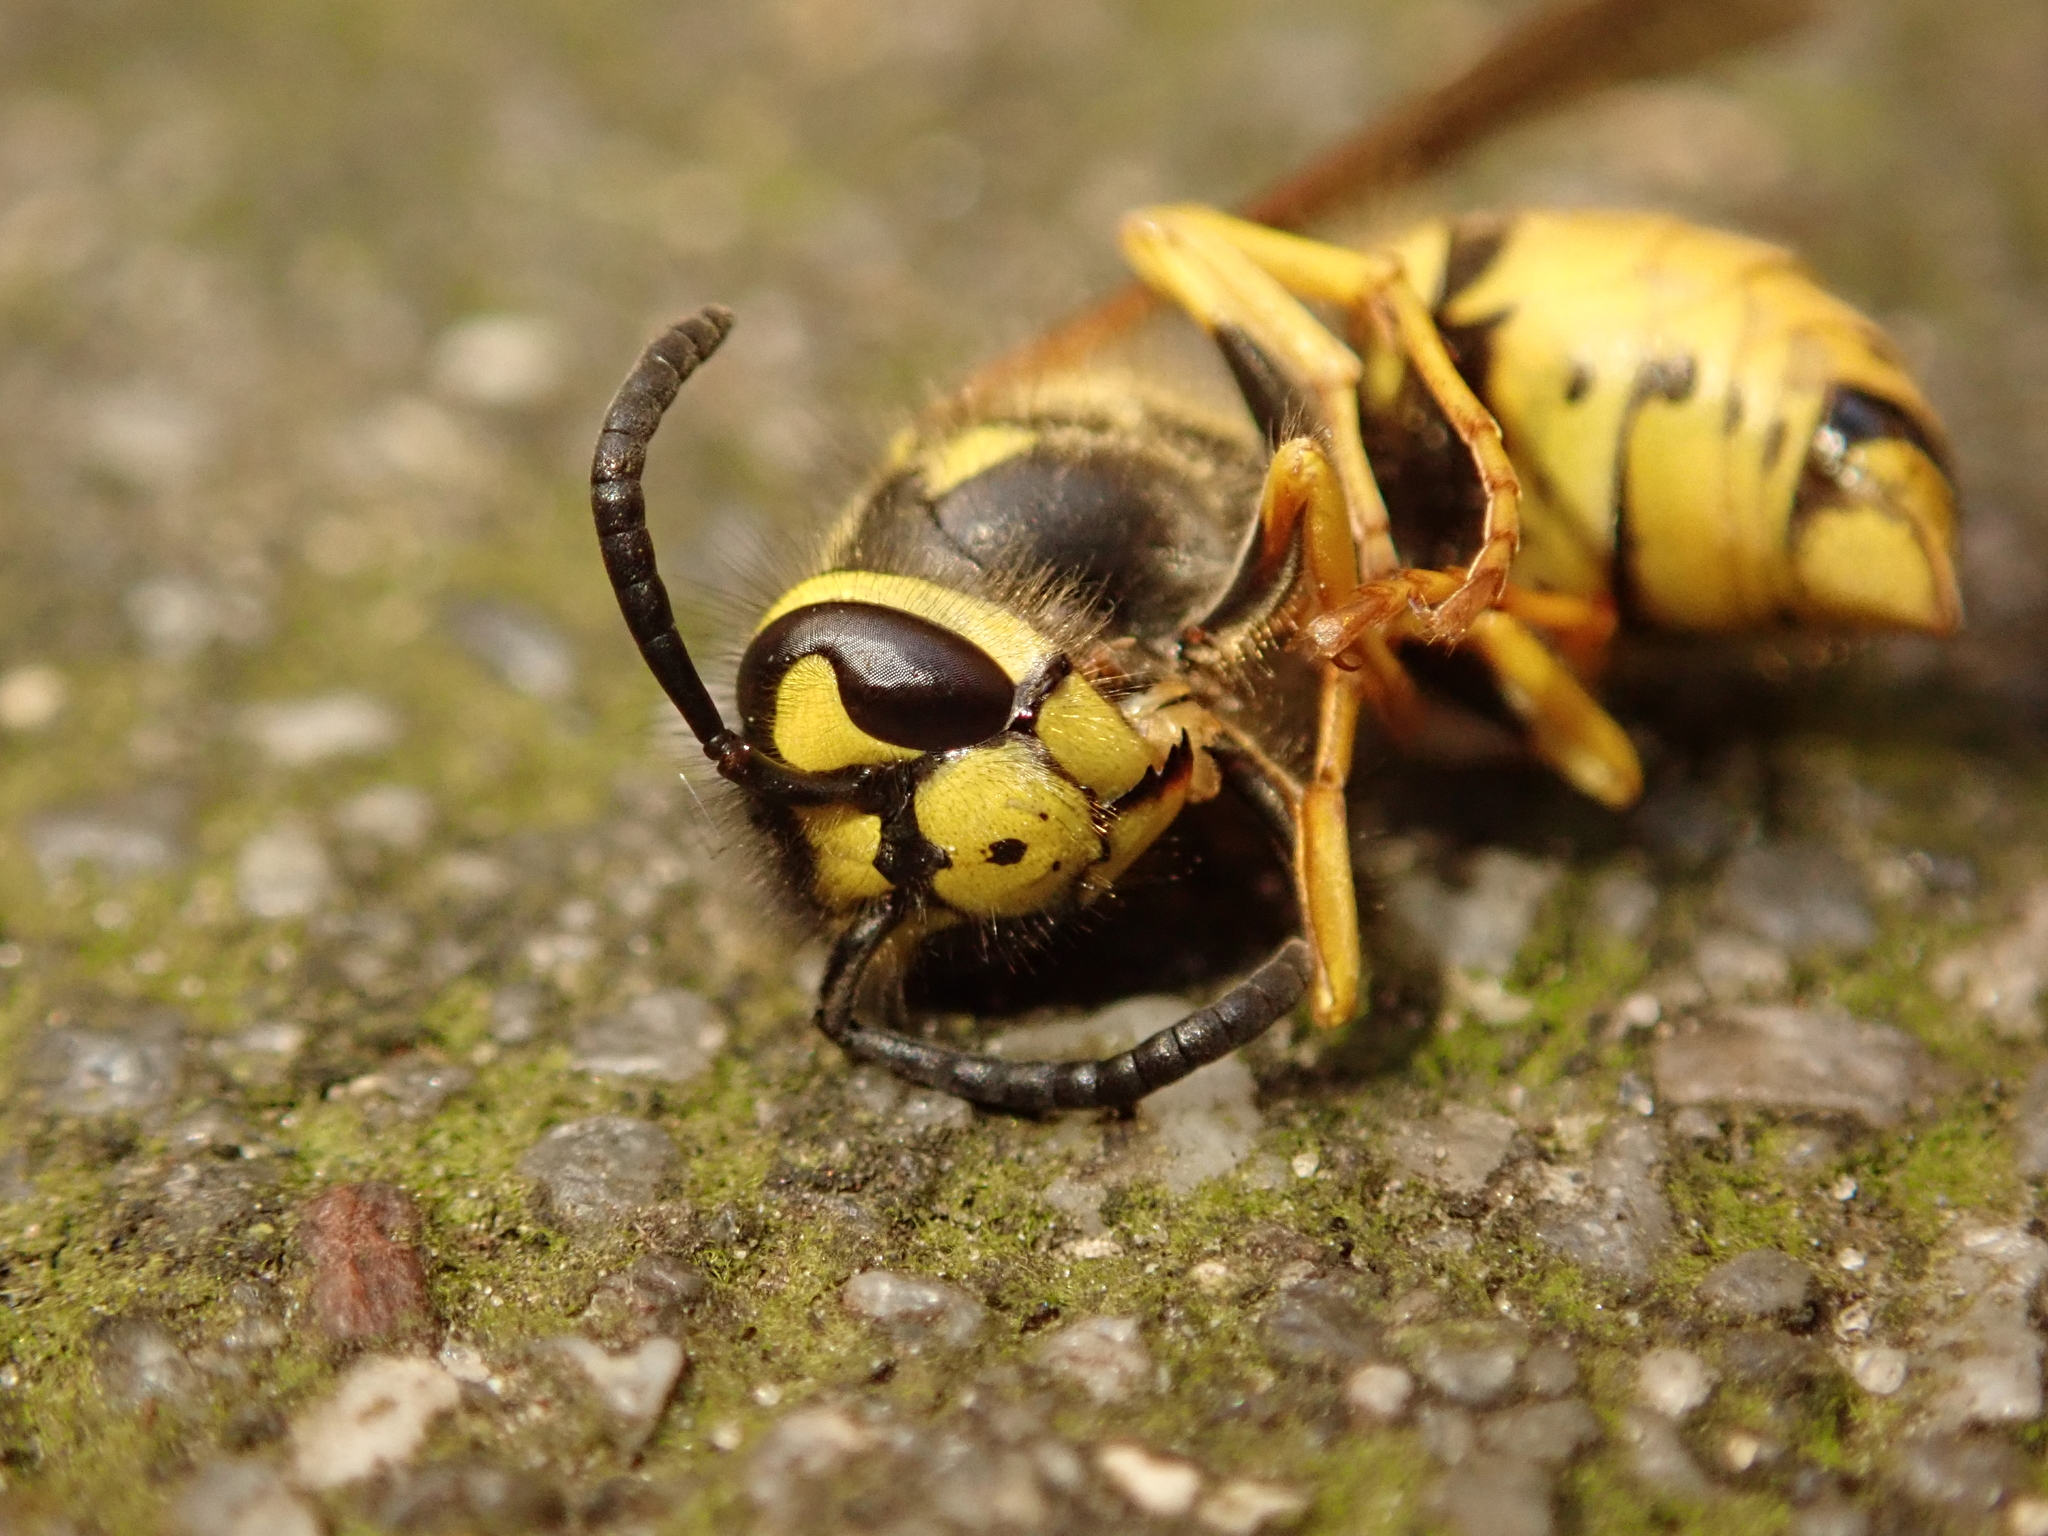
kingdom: Animalia
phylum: Arthropoda
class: Insecta
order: Hymenoptera
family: Vespidae
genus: Vespula
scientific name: Vespula germanica
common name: German wasp
